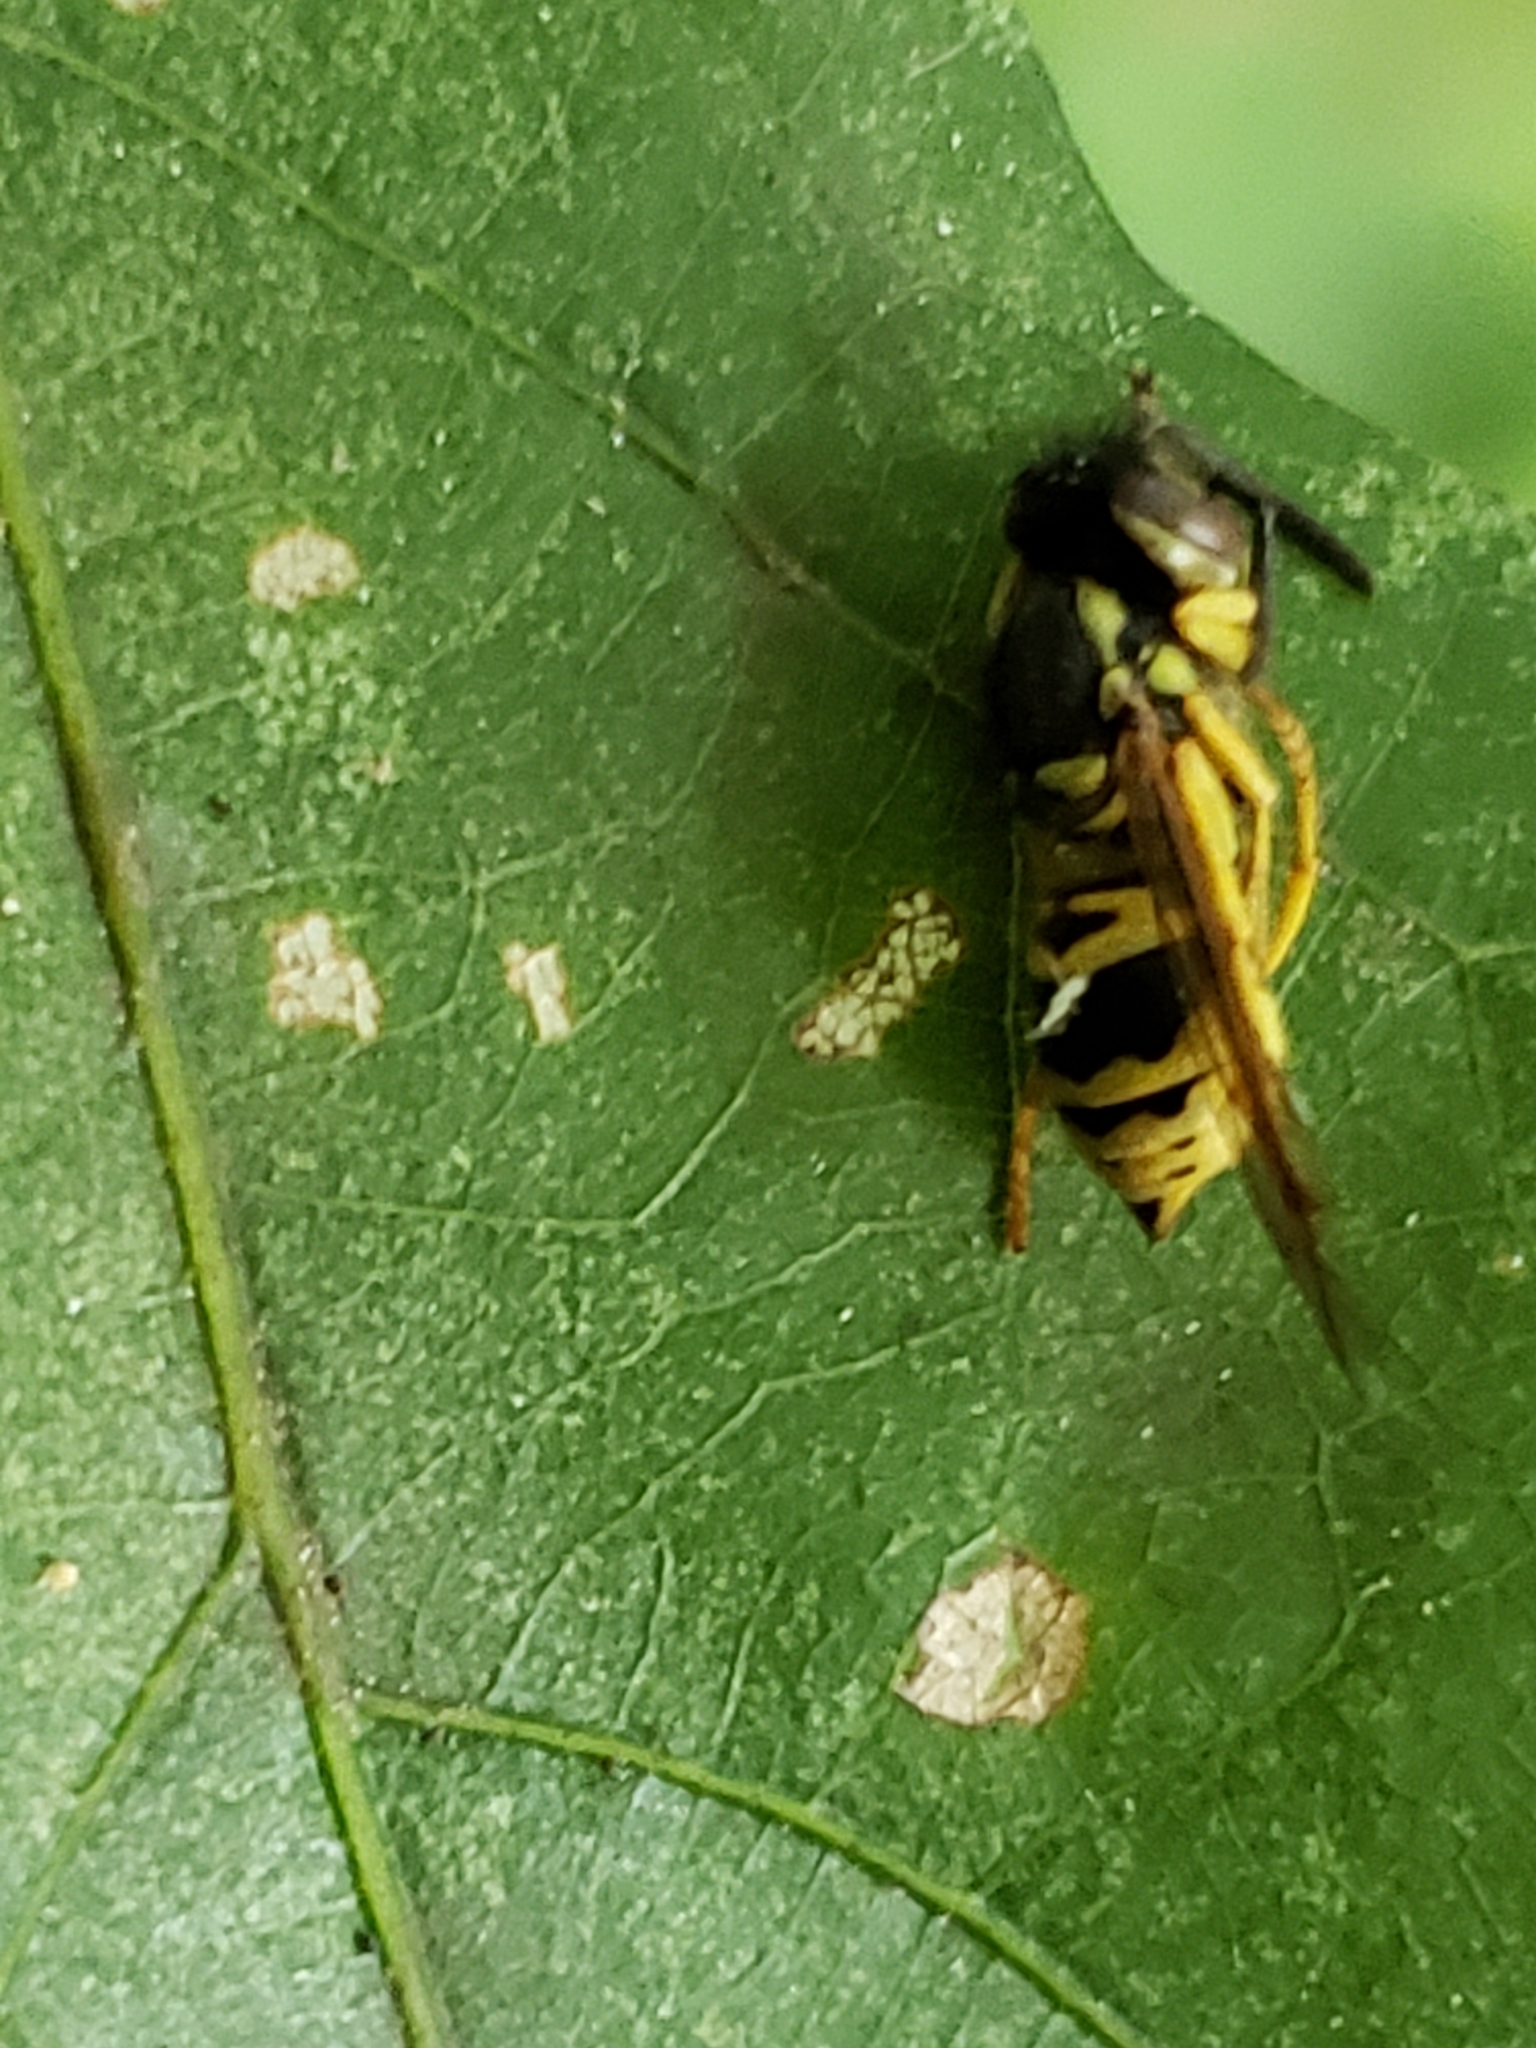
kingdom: Animalia
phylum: Arthropoda
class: Insecta
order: Hymenoptera
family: Vespidae
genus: Vespula
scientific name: Vespula maculifrons
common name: Eastern yellowjacket
